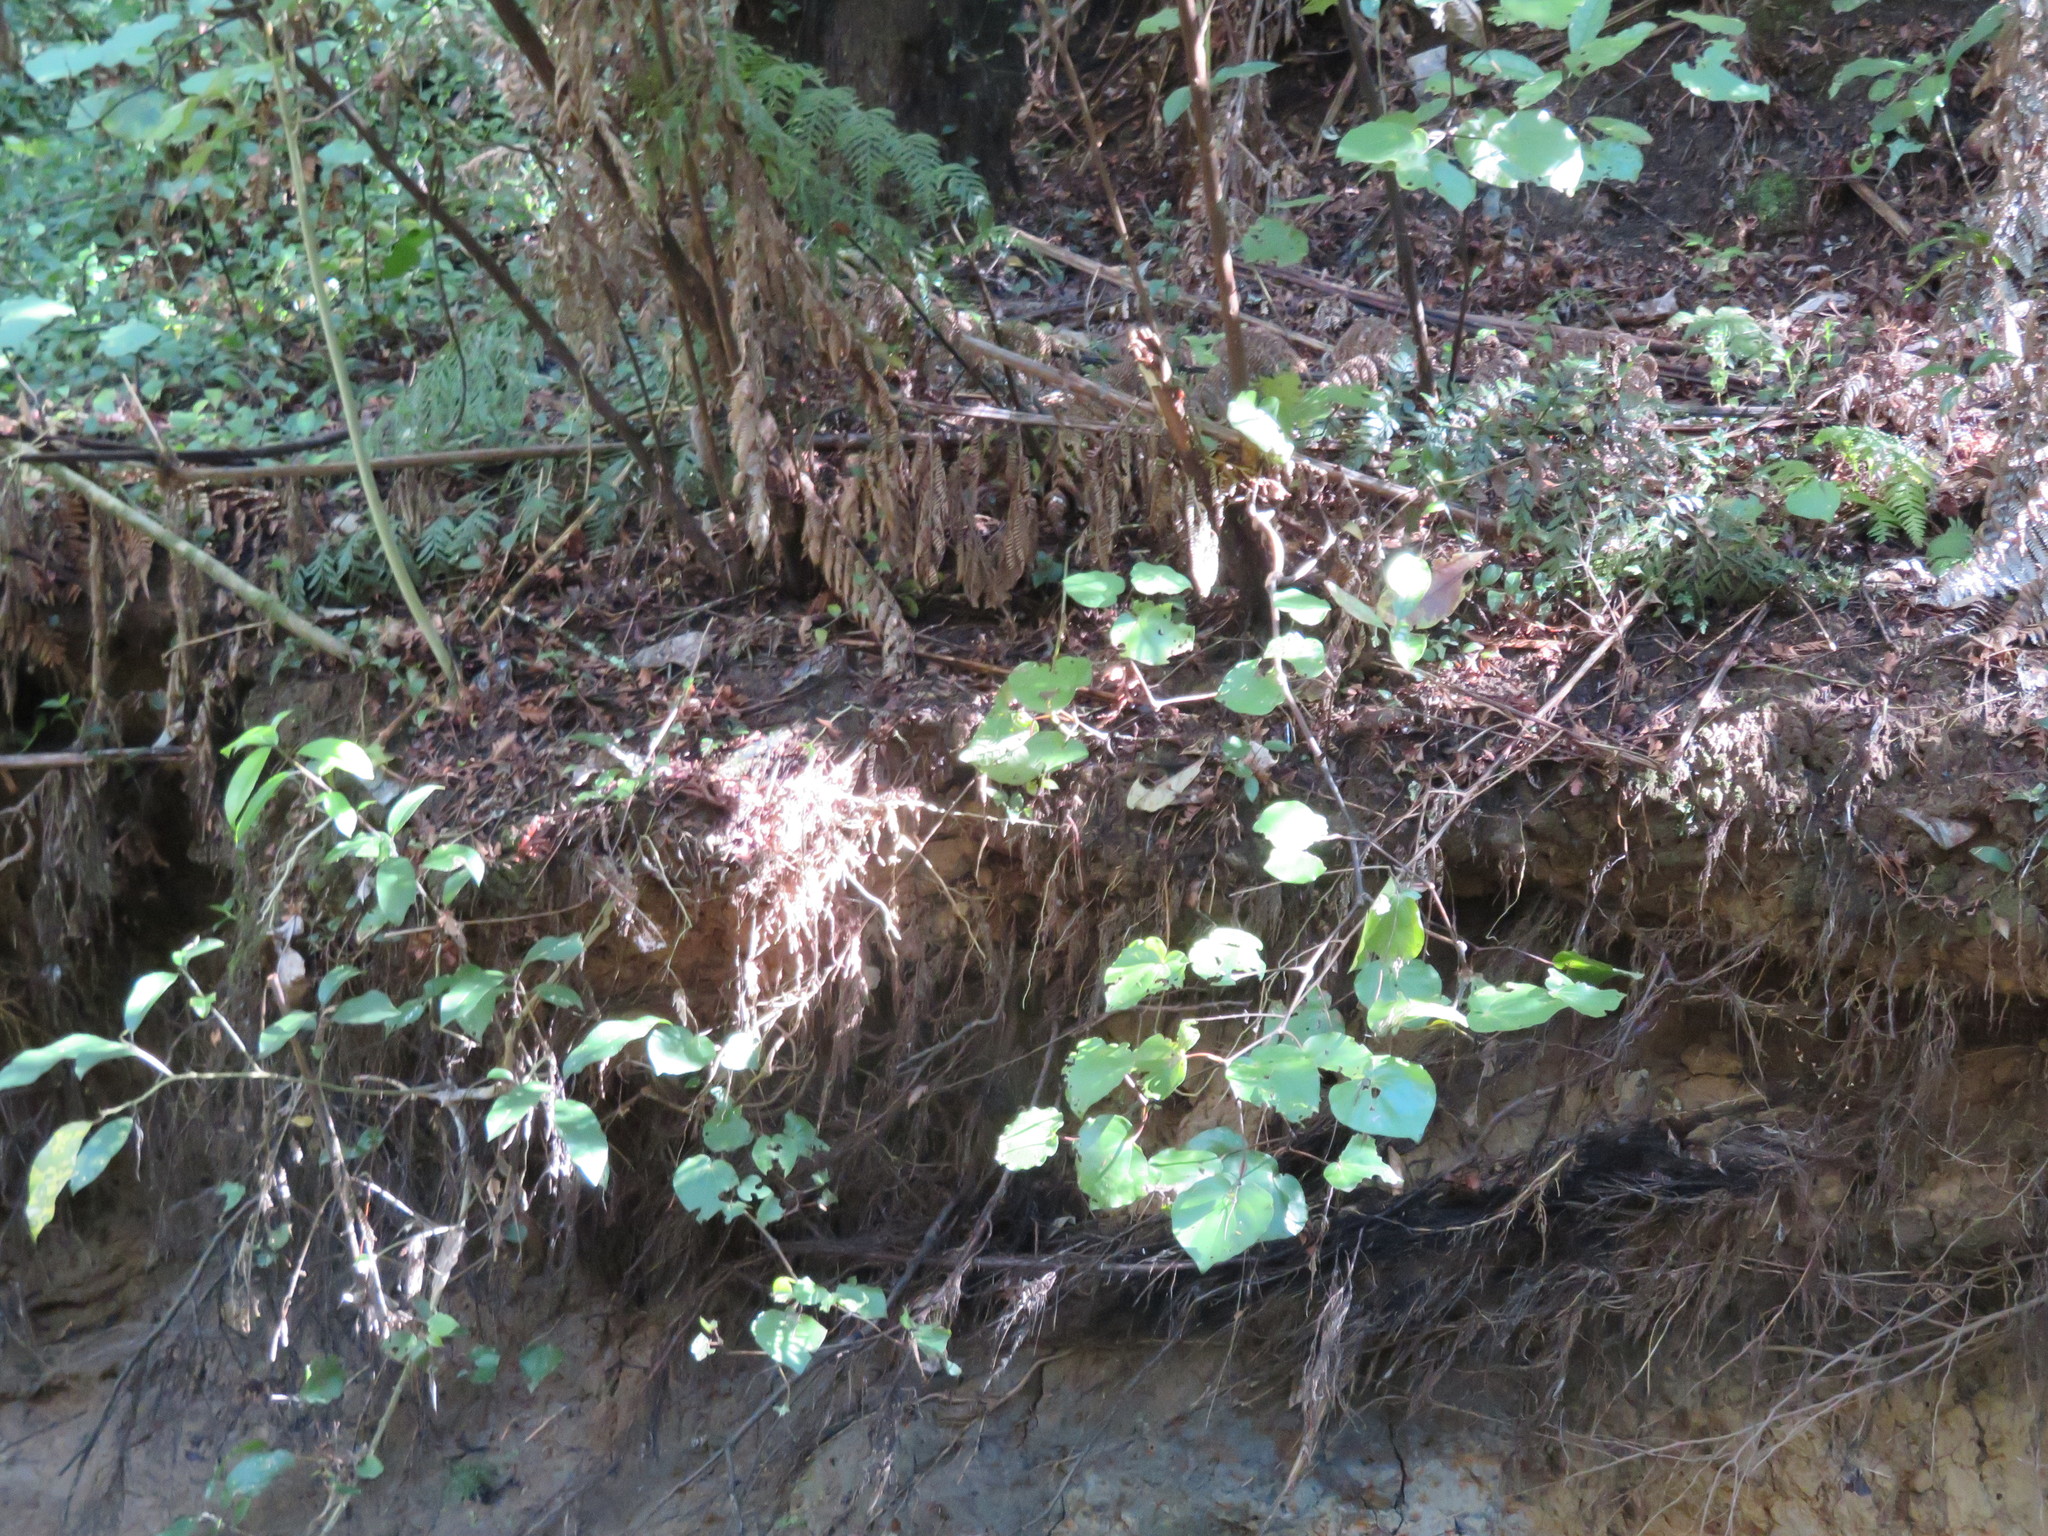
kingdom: Plantae
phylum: Tracheophyta
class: Magnoliopsida
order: Piperales
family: Piperaceae
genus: Macropiper
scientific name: Macropiper excelsum
